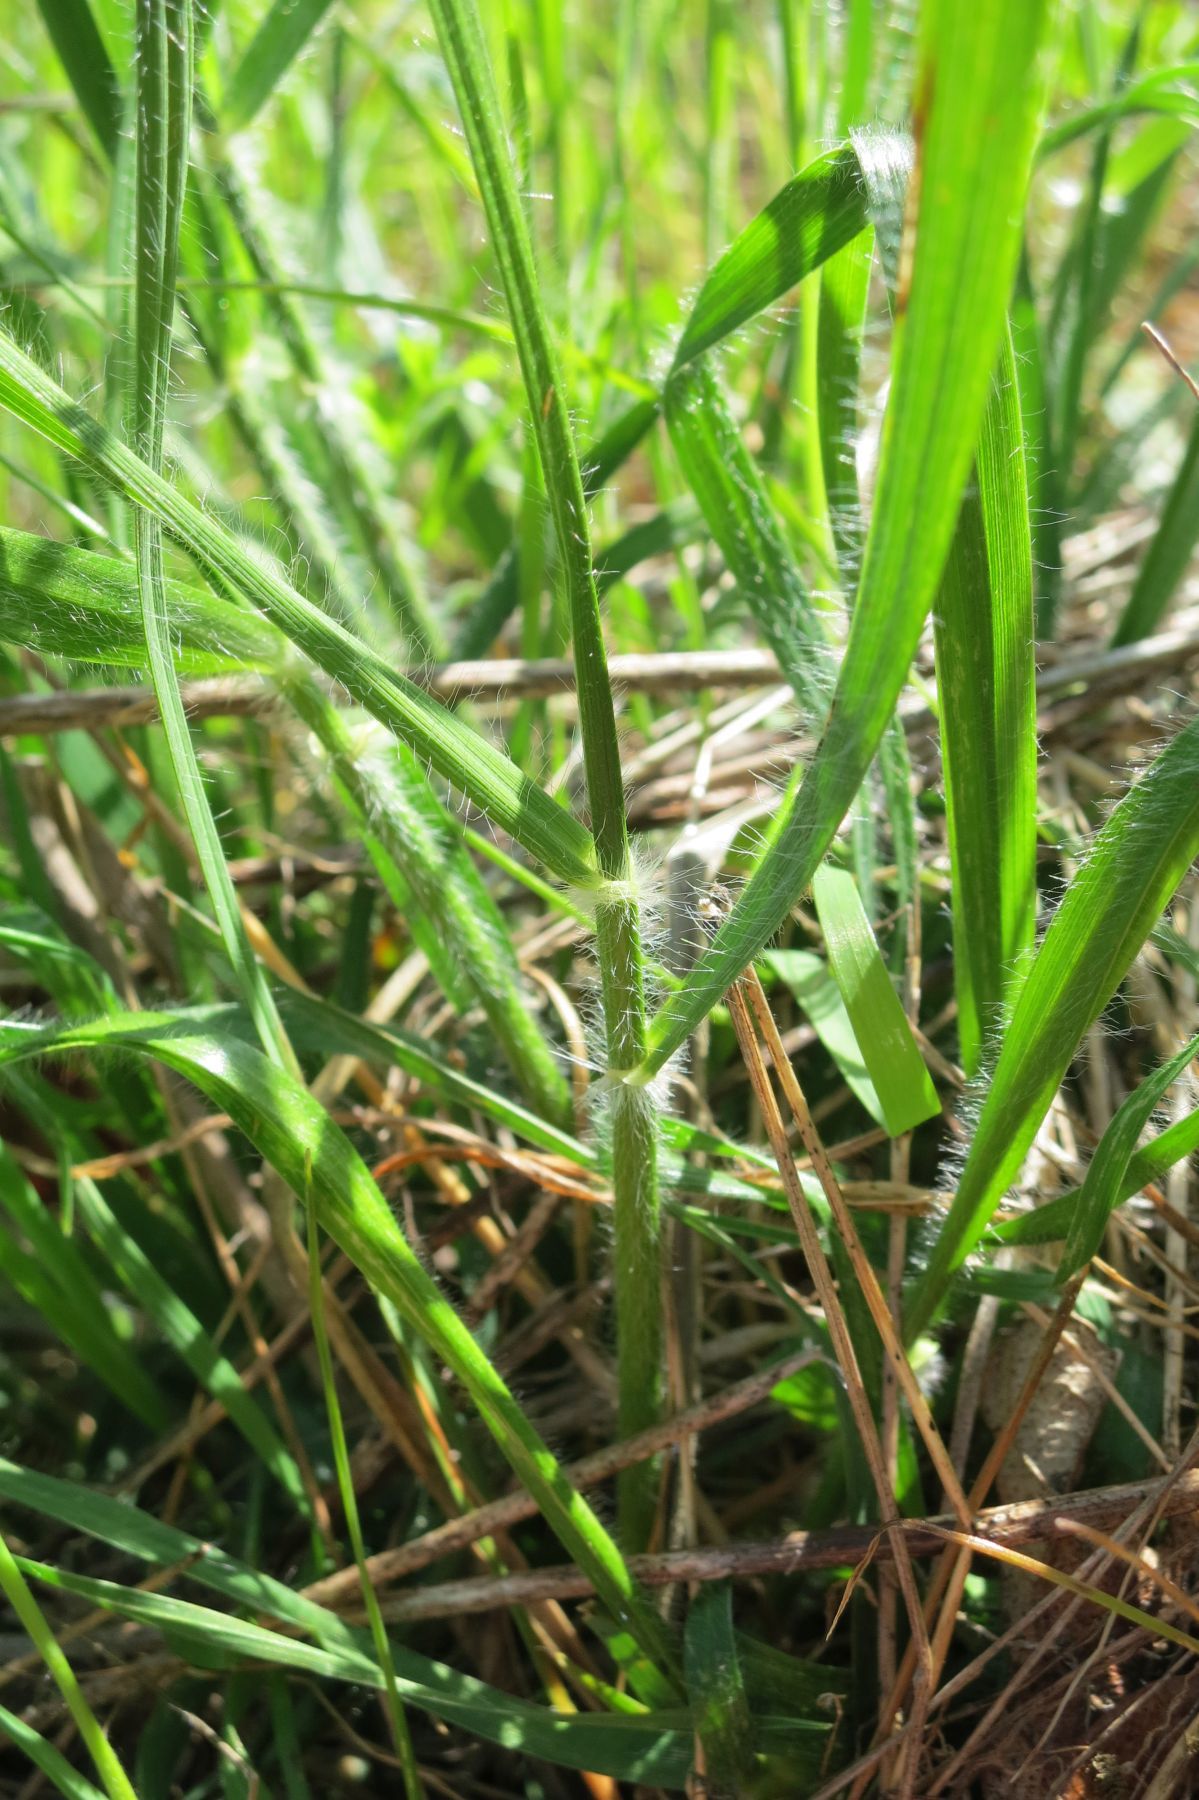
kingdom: Plantae
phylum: Tracheophyta
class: Liliopsida
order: Poales
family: Poaceae
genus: Danthonia
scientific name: Danthonia californica
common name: California oat grass
